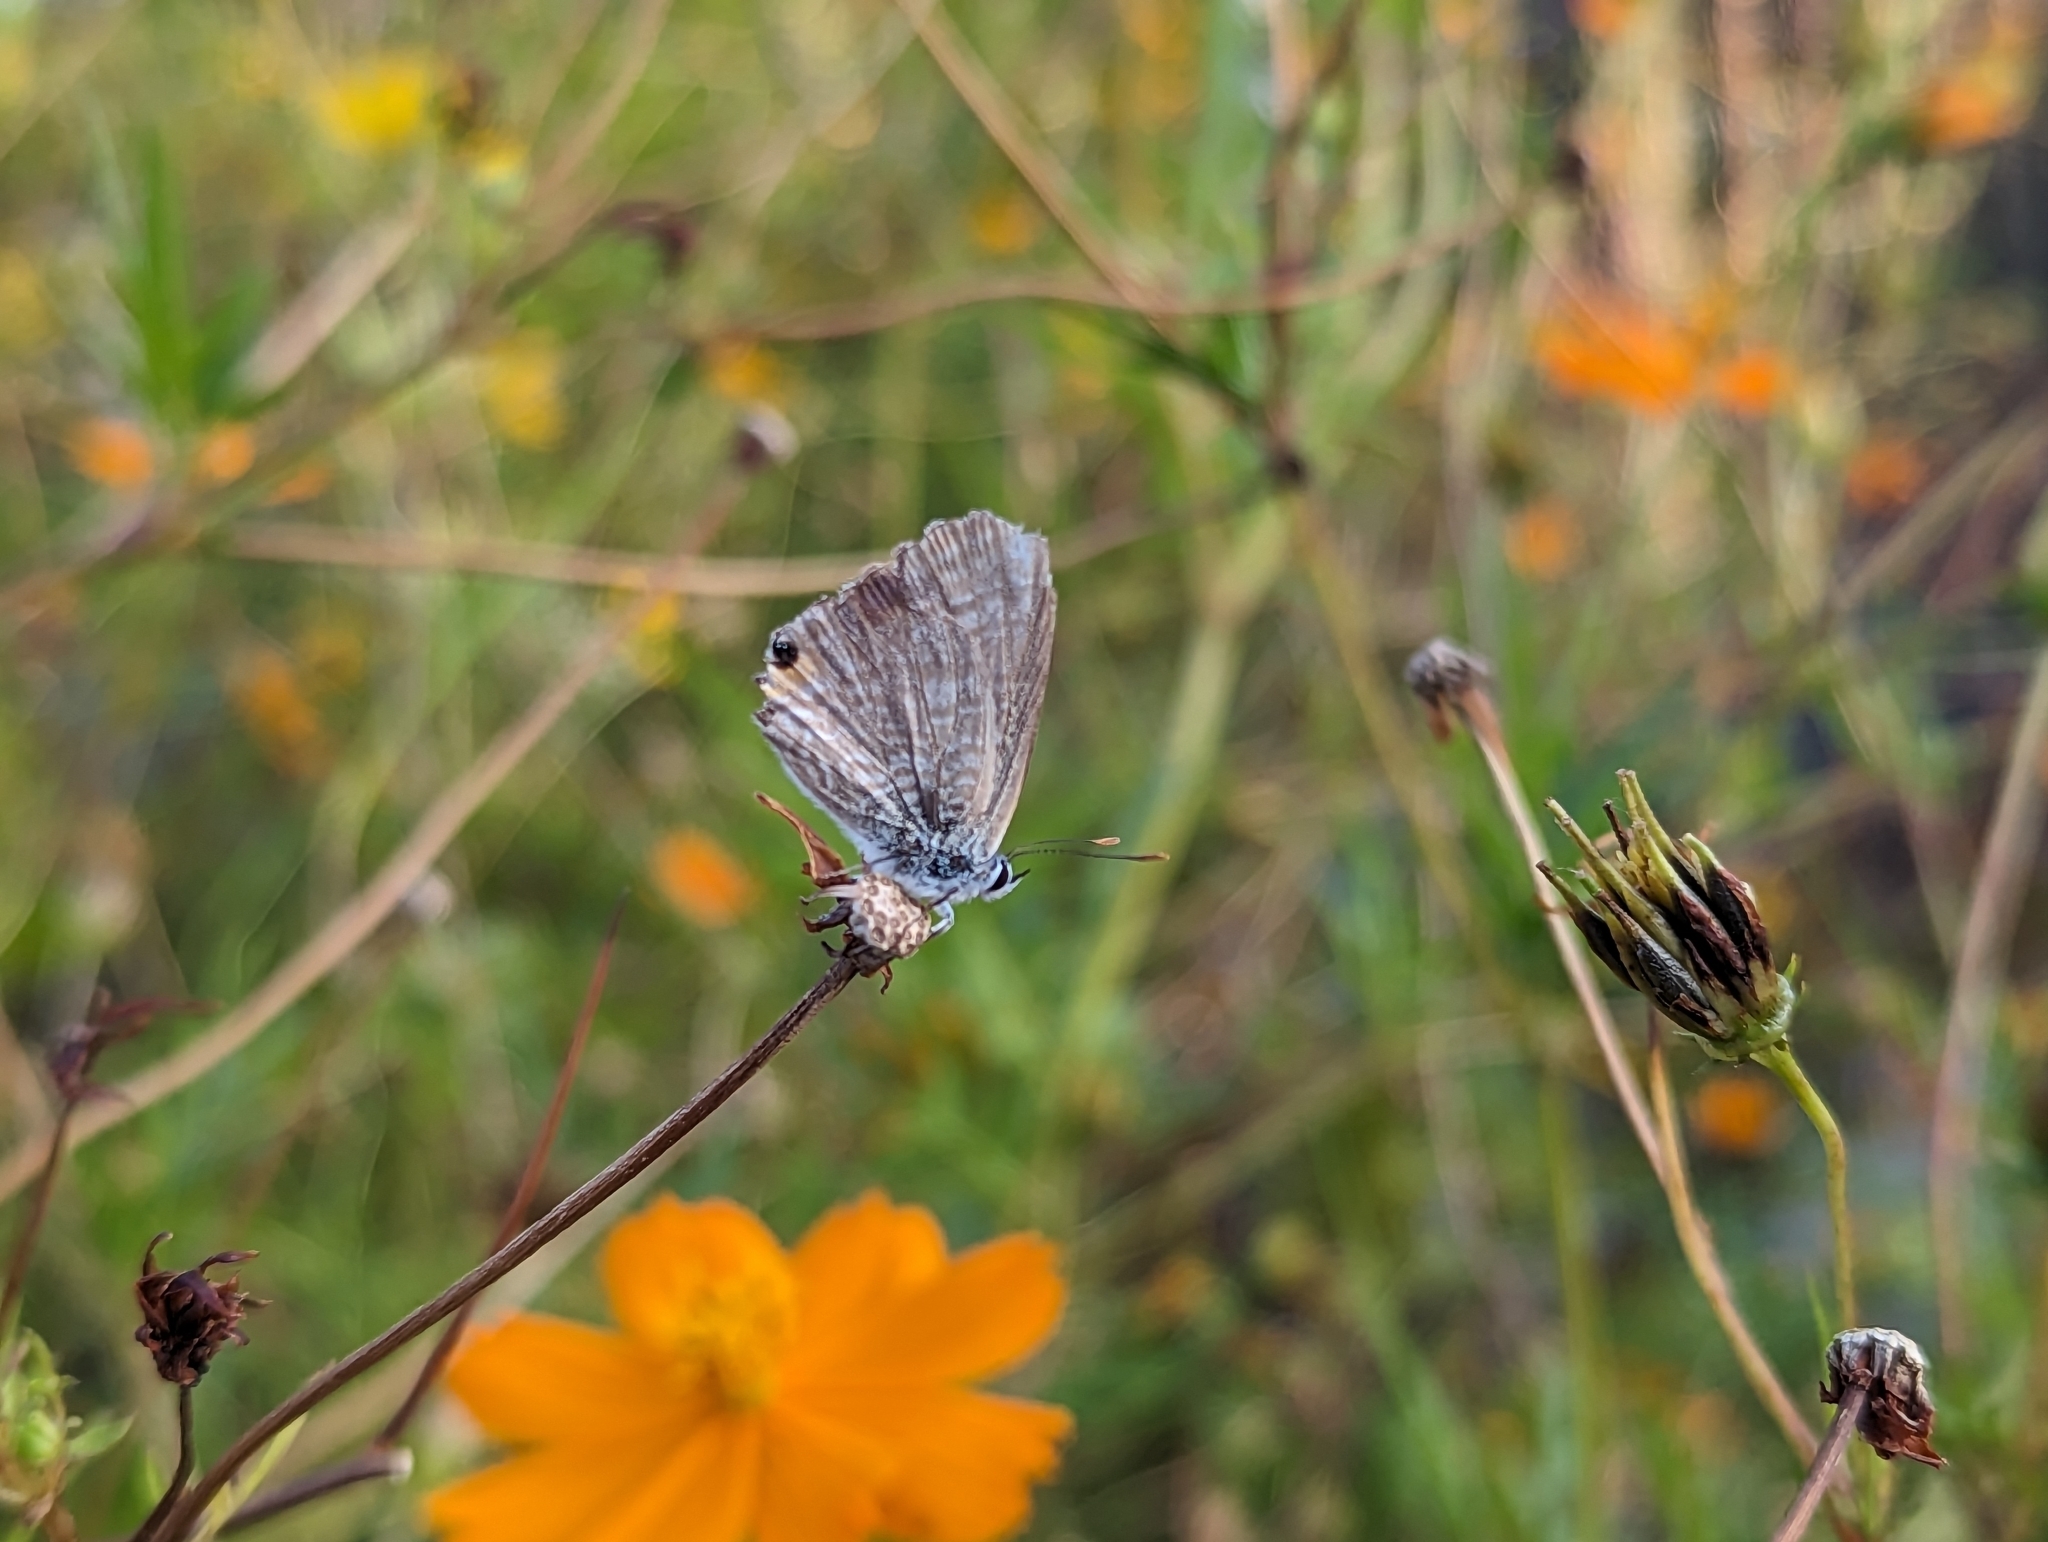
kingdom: Animalia
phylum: Arthropoda
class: Insecta
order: Lepidoptera
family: Lycaenidae
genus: Lampides
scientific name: Lampides boeticus
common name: Long-tailed blue
